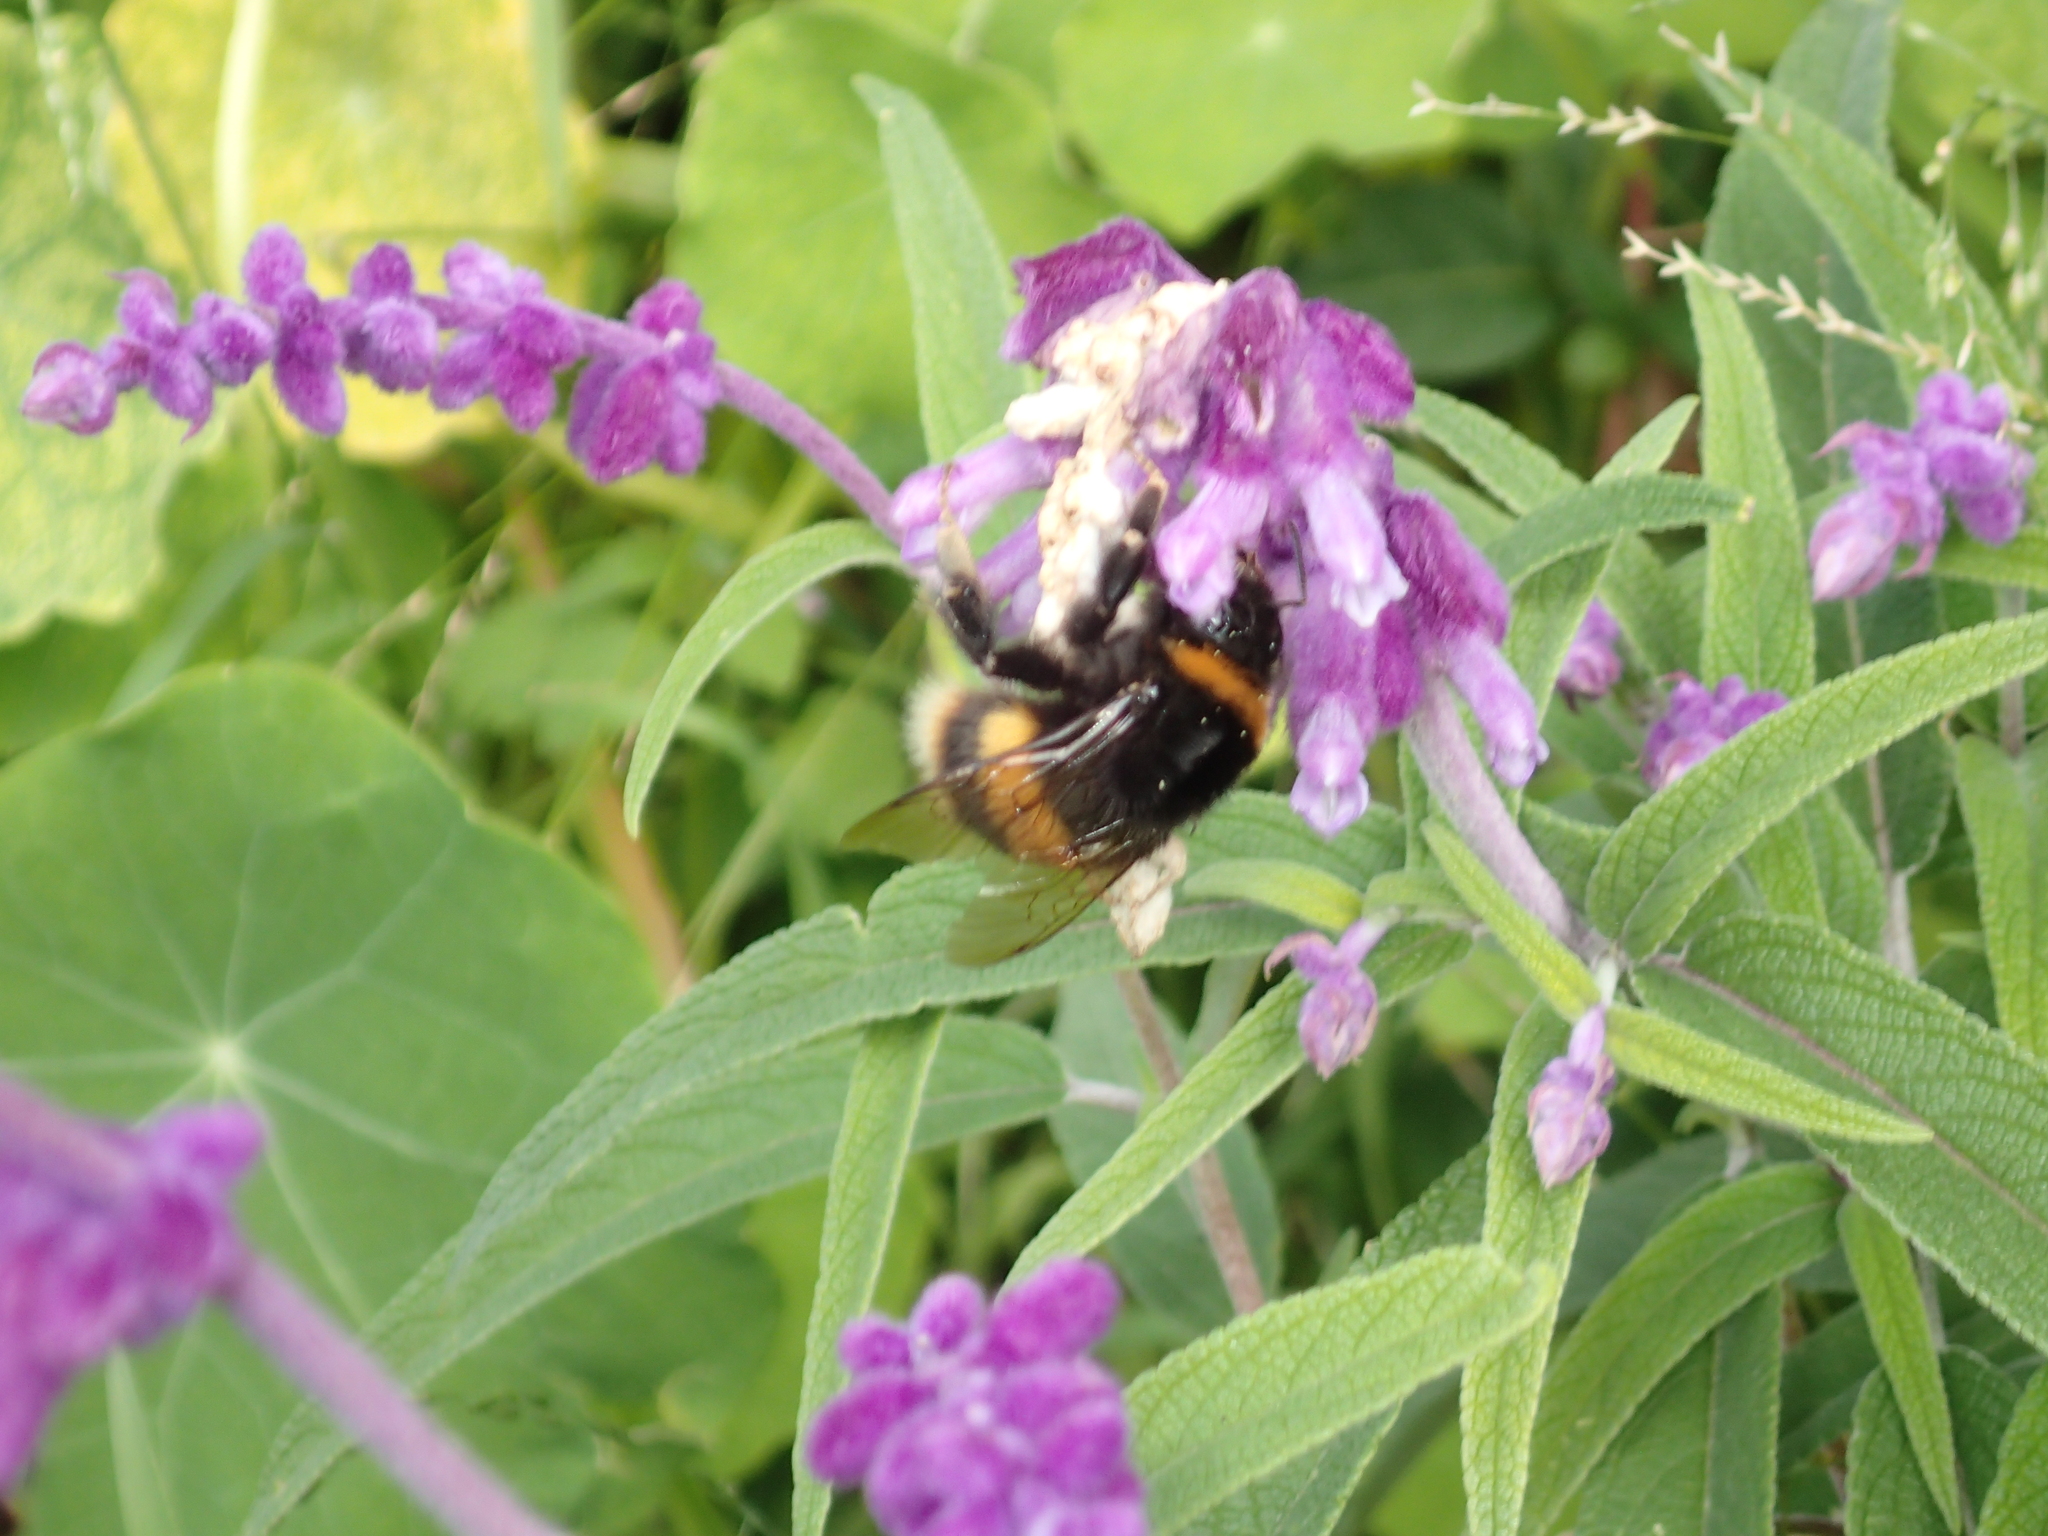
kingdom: Animalia
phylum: Arthropoda
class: Insecta
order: Hymenoptera
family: Apidae
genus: Bombus
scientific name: Bombus terrestris
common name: Buff-tailed bumblebee
